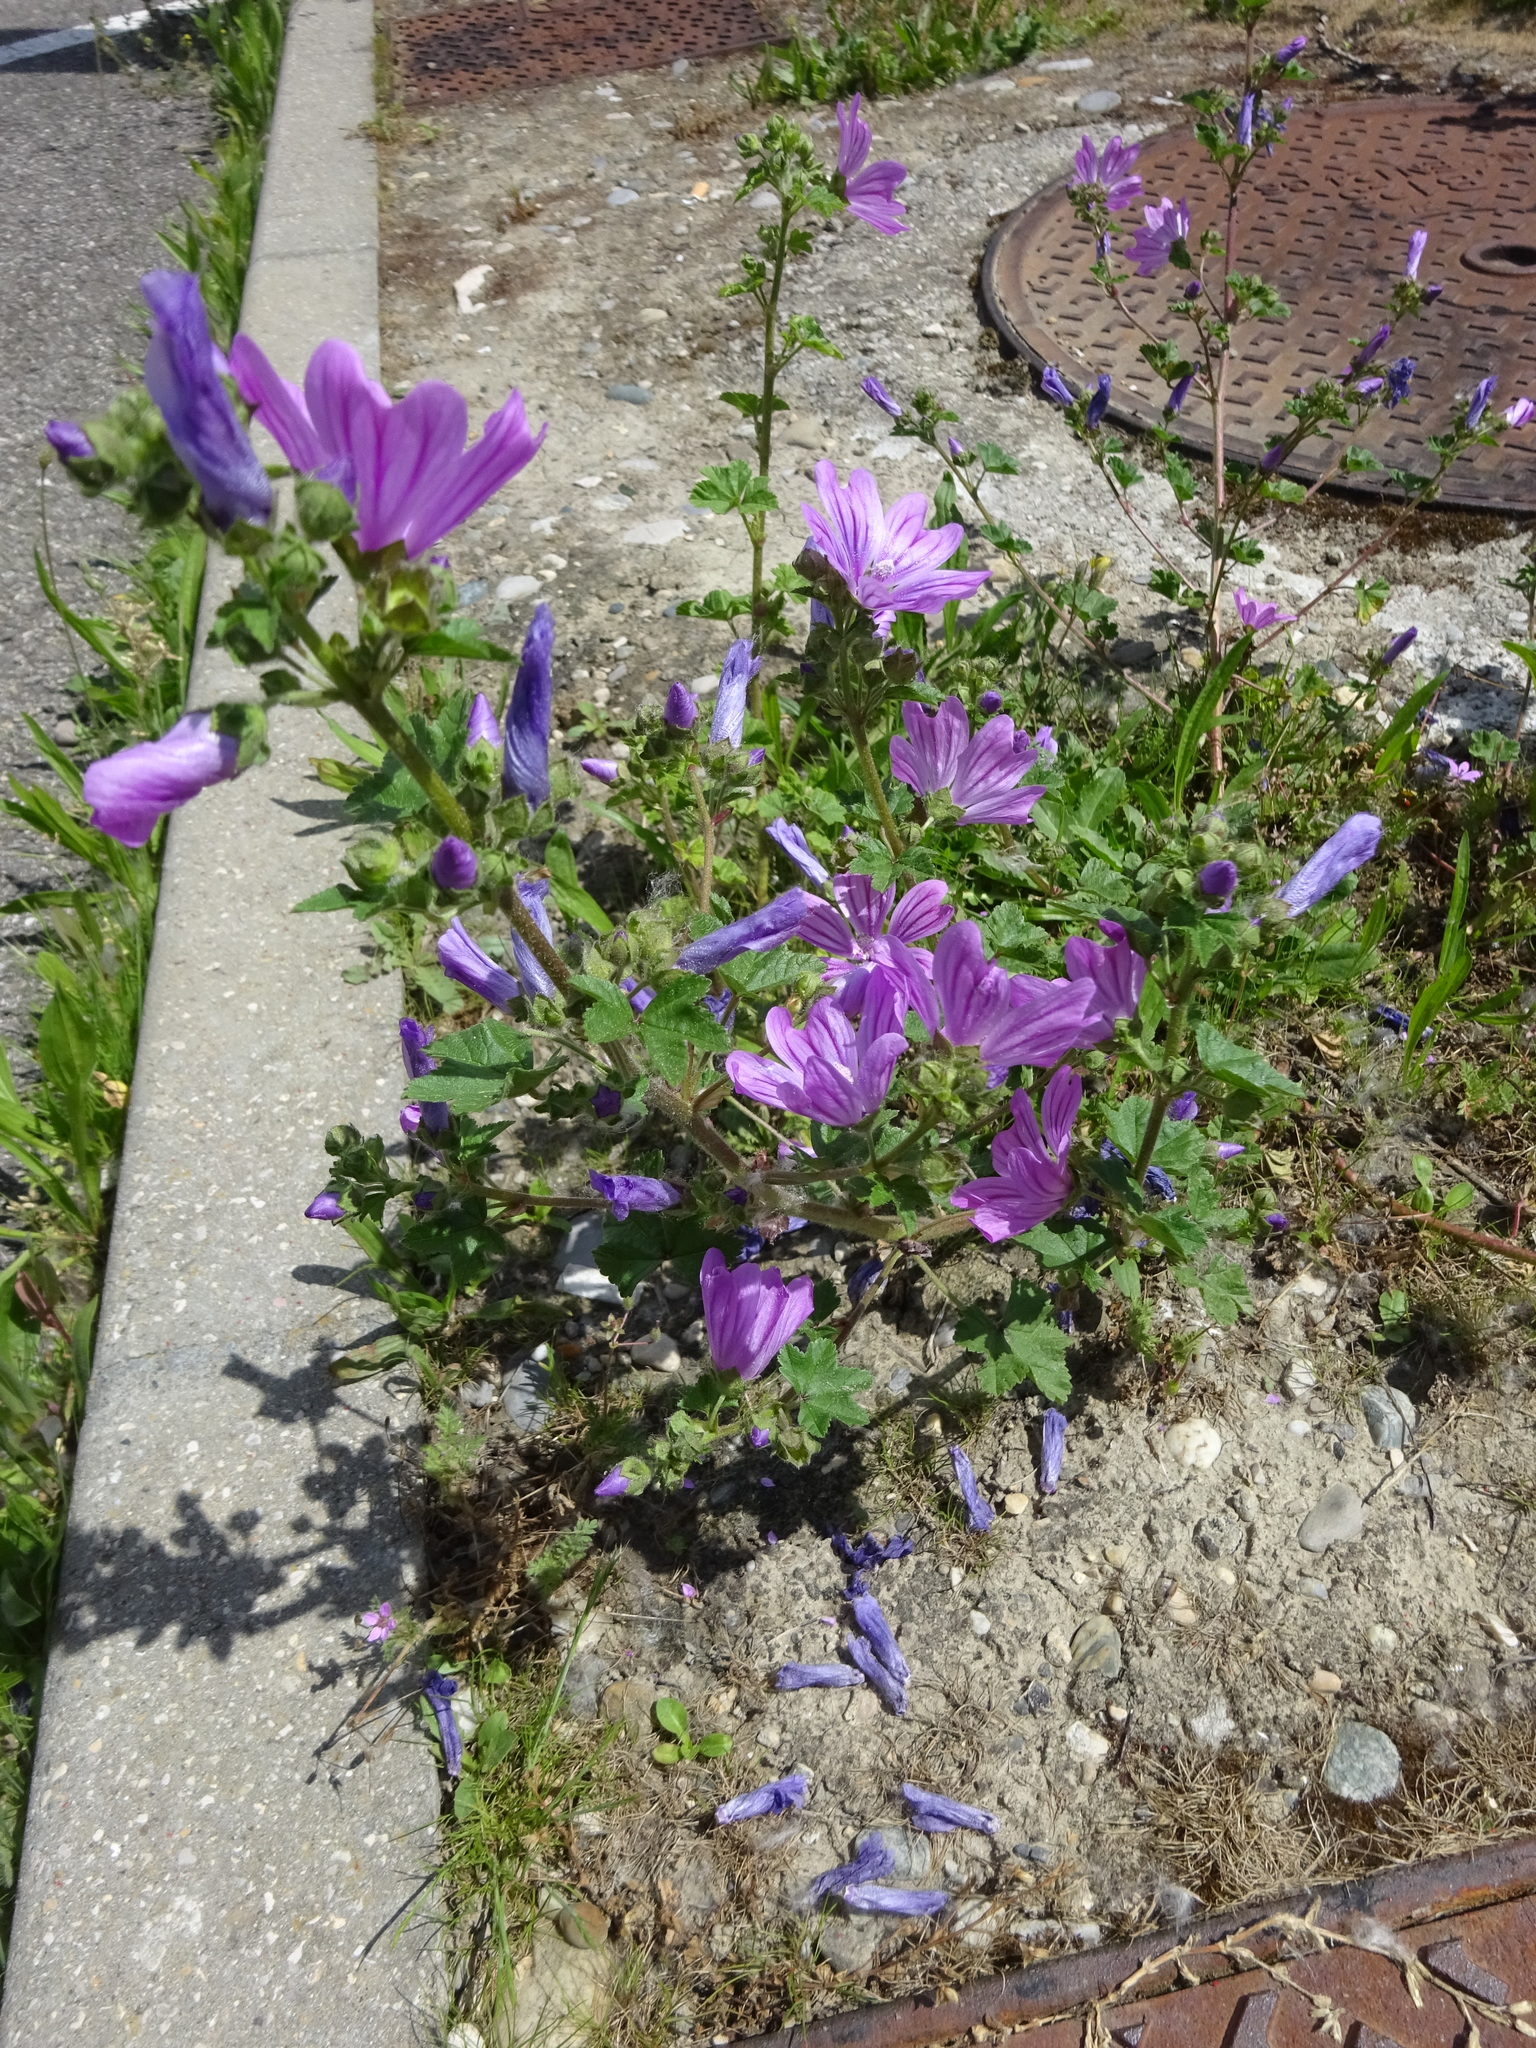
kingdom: Plantae
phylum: Tracheophyta
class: Magnoliopsida
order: Malvales
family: Malvaceae
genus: Malva
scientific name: Malva sylvestris
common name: Common mallow
